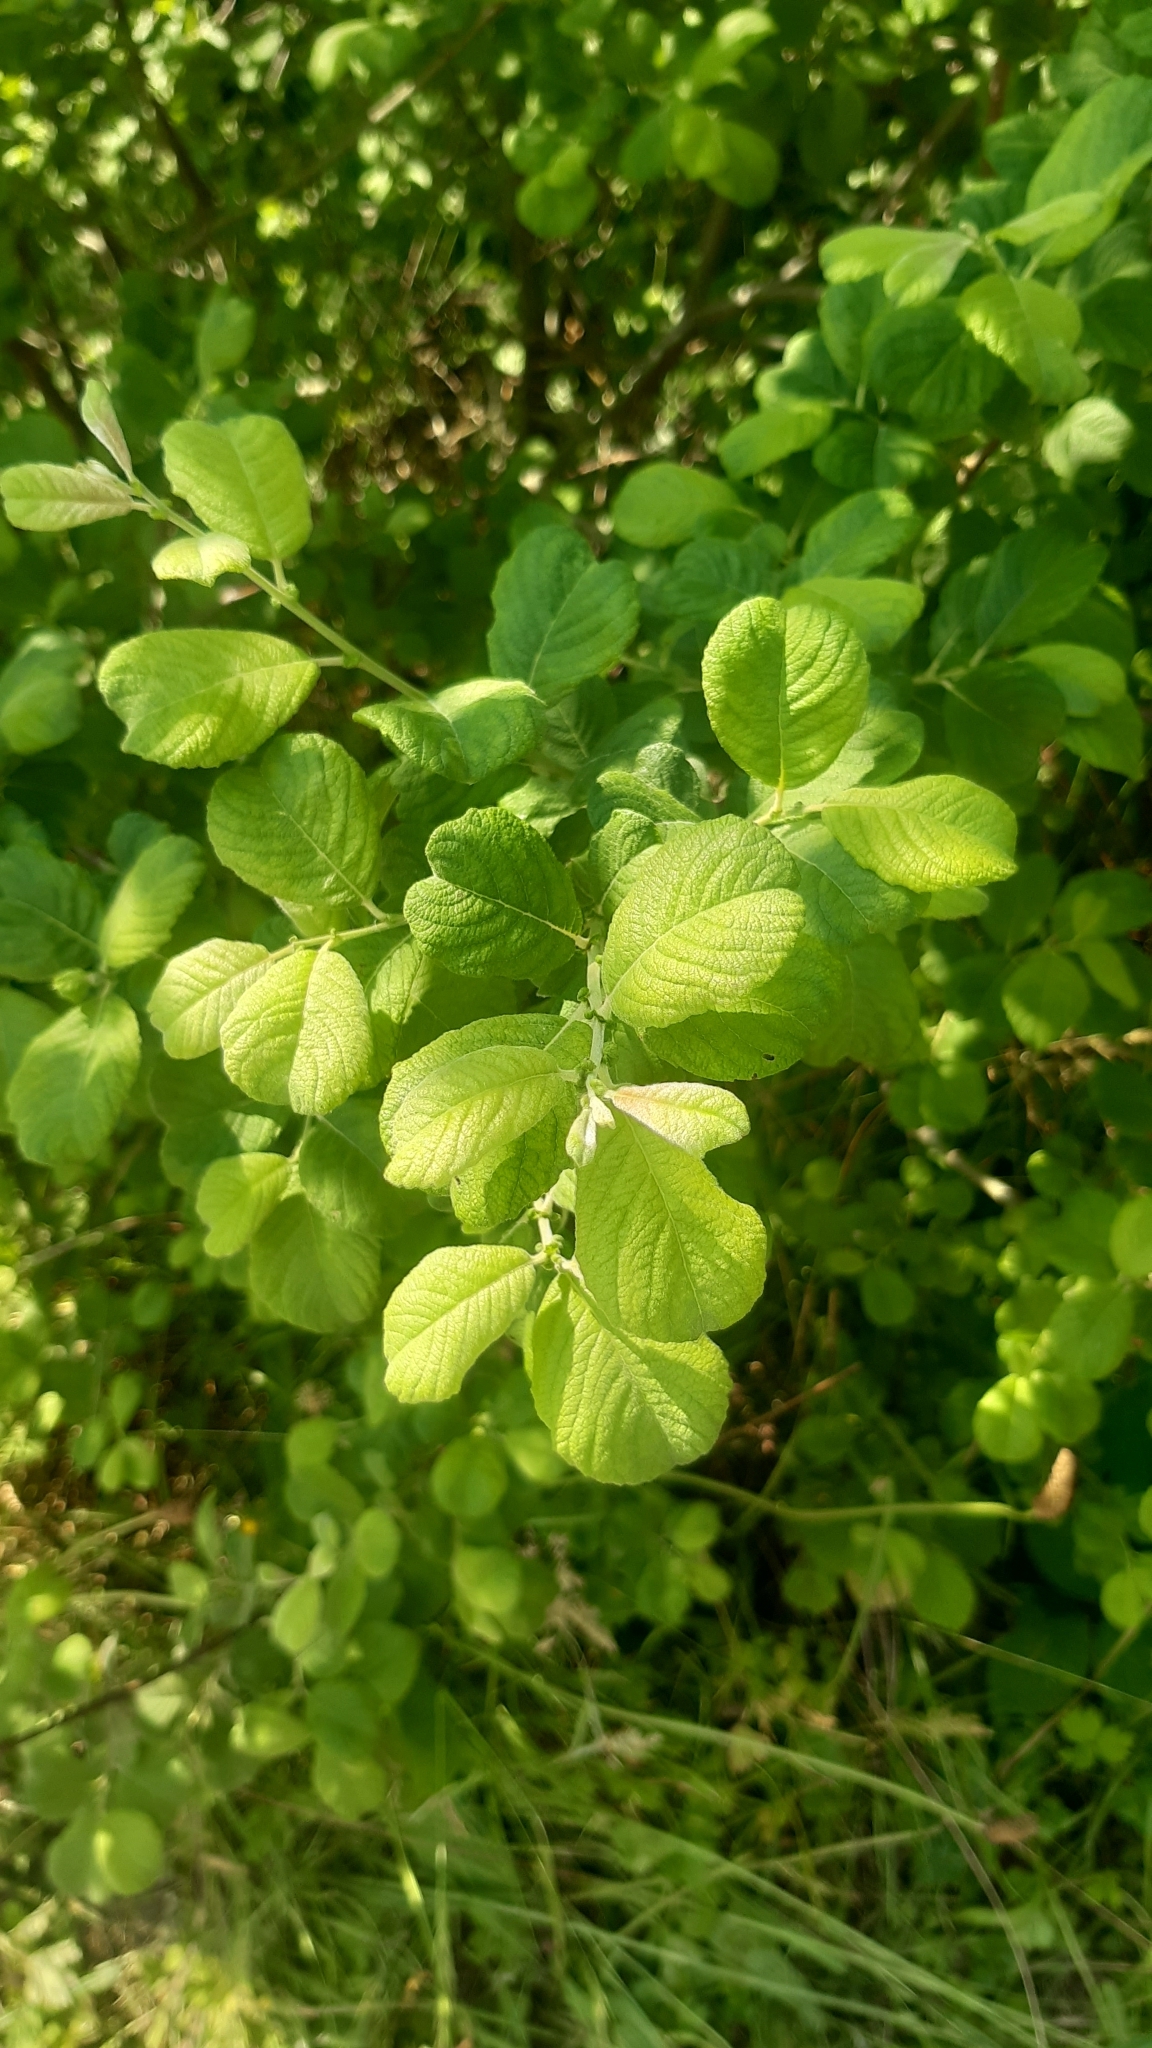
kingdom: Plantae
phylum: Tracheophyta
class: Magnoliopsida
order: Malpighiales
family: Salicaceae
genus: Salix
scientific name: Salix aurita
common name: Eared willow
